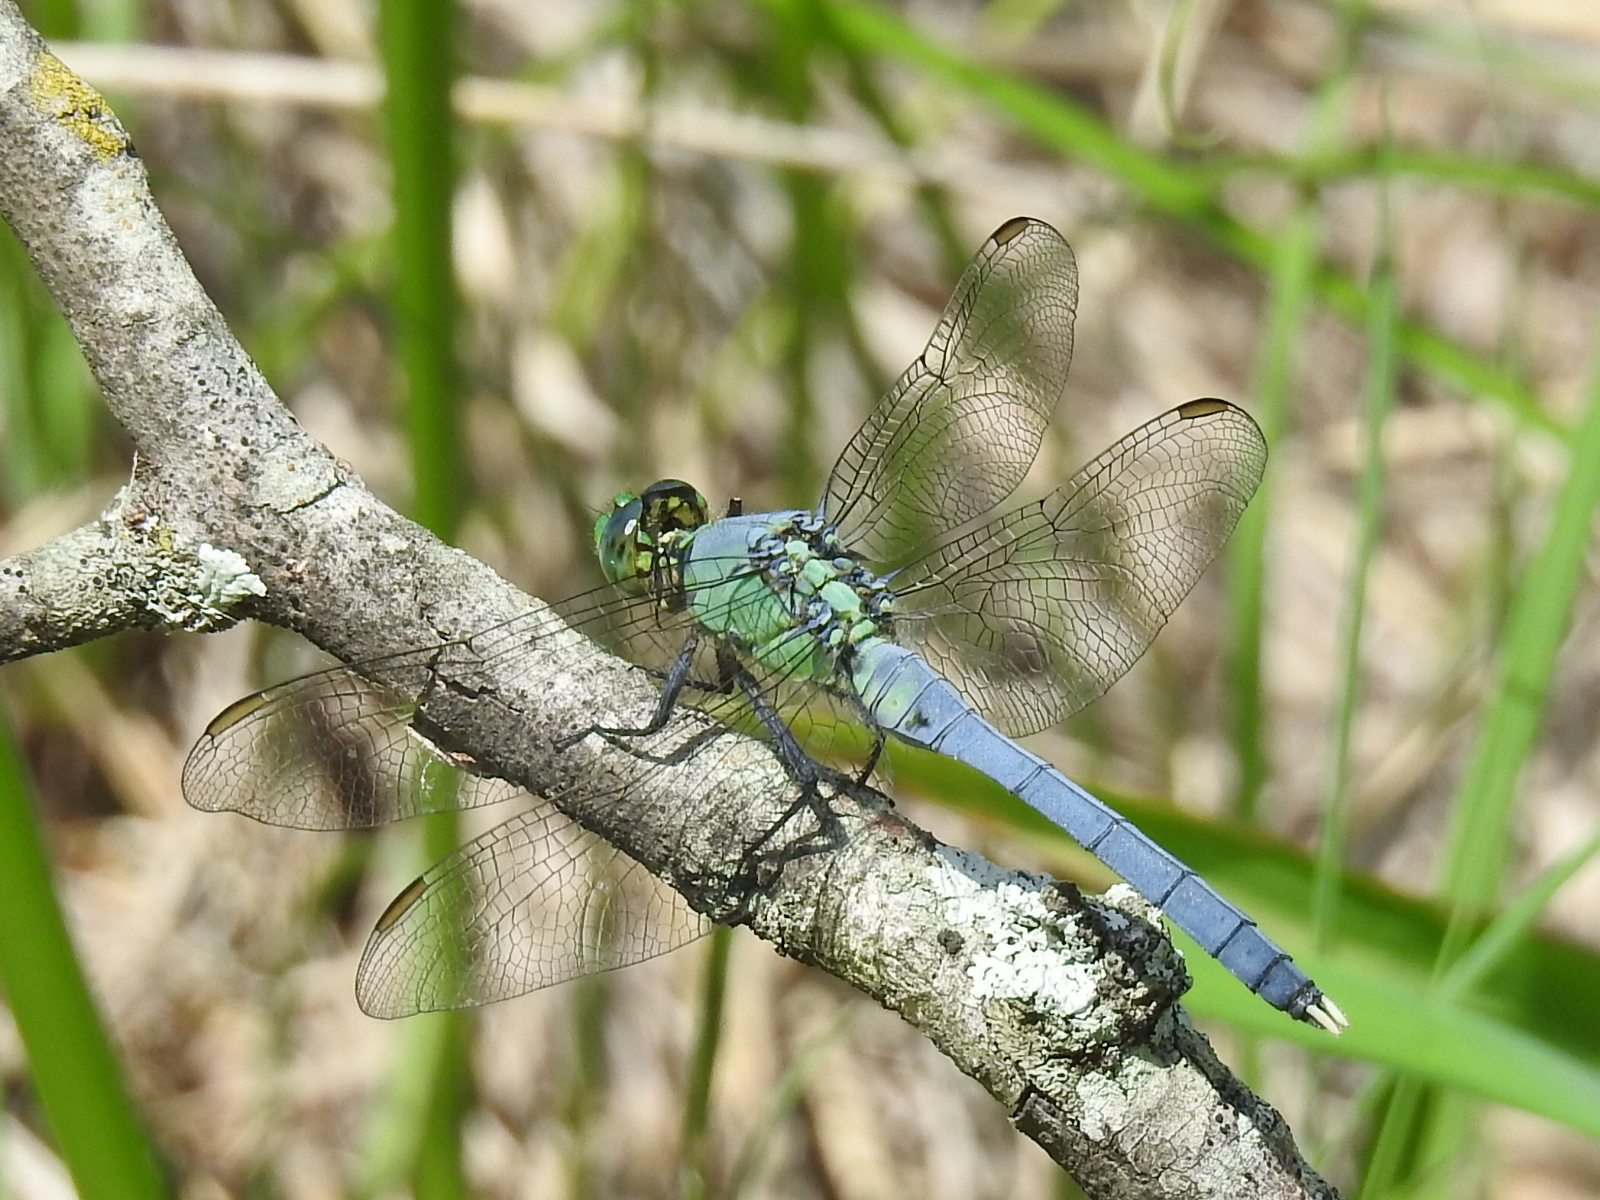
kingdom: Animalia
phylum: Arthropoda
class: Insecta
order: Odonata
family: Libellulidae
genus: Erythemis
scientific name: Erythemis simplicicollis
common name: Eastern pondhawk
